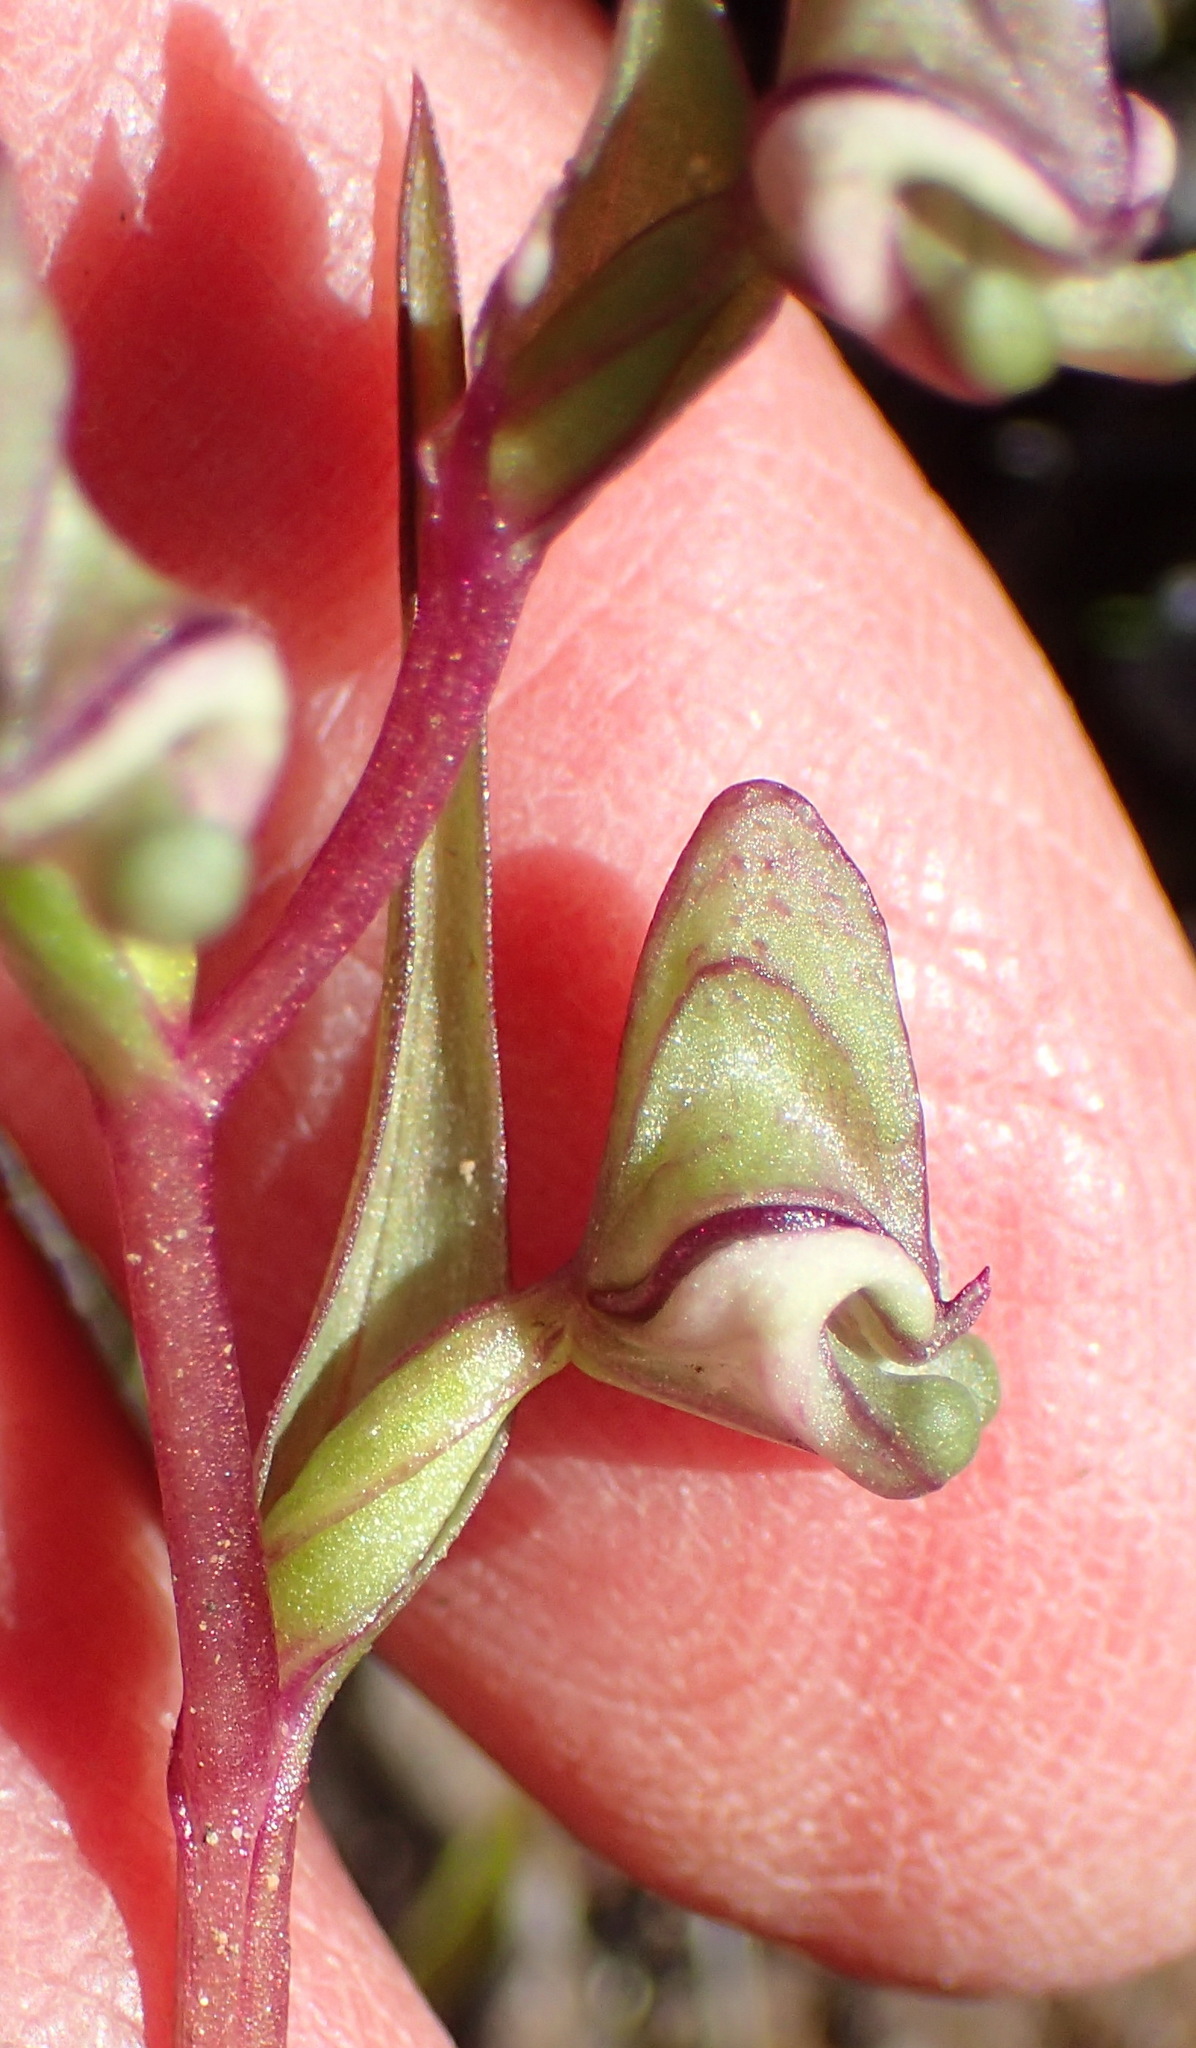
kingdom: Plantae
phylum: Tracheophyta
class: Liliopsida
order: Asparagales
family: Orchidaceae
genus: Disperis
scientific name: Disperis circumflexa
